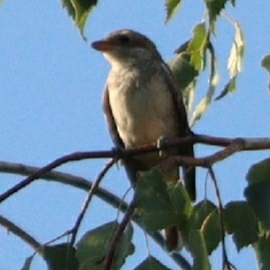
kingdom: Animalia
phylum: Chordata
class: Aves
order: Passeriformes
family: Laniidae
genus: Lanius
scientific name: Lanius collurio
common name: Red-backed shrike
